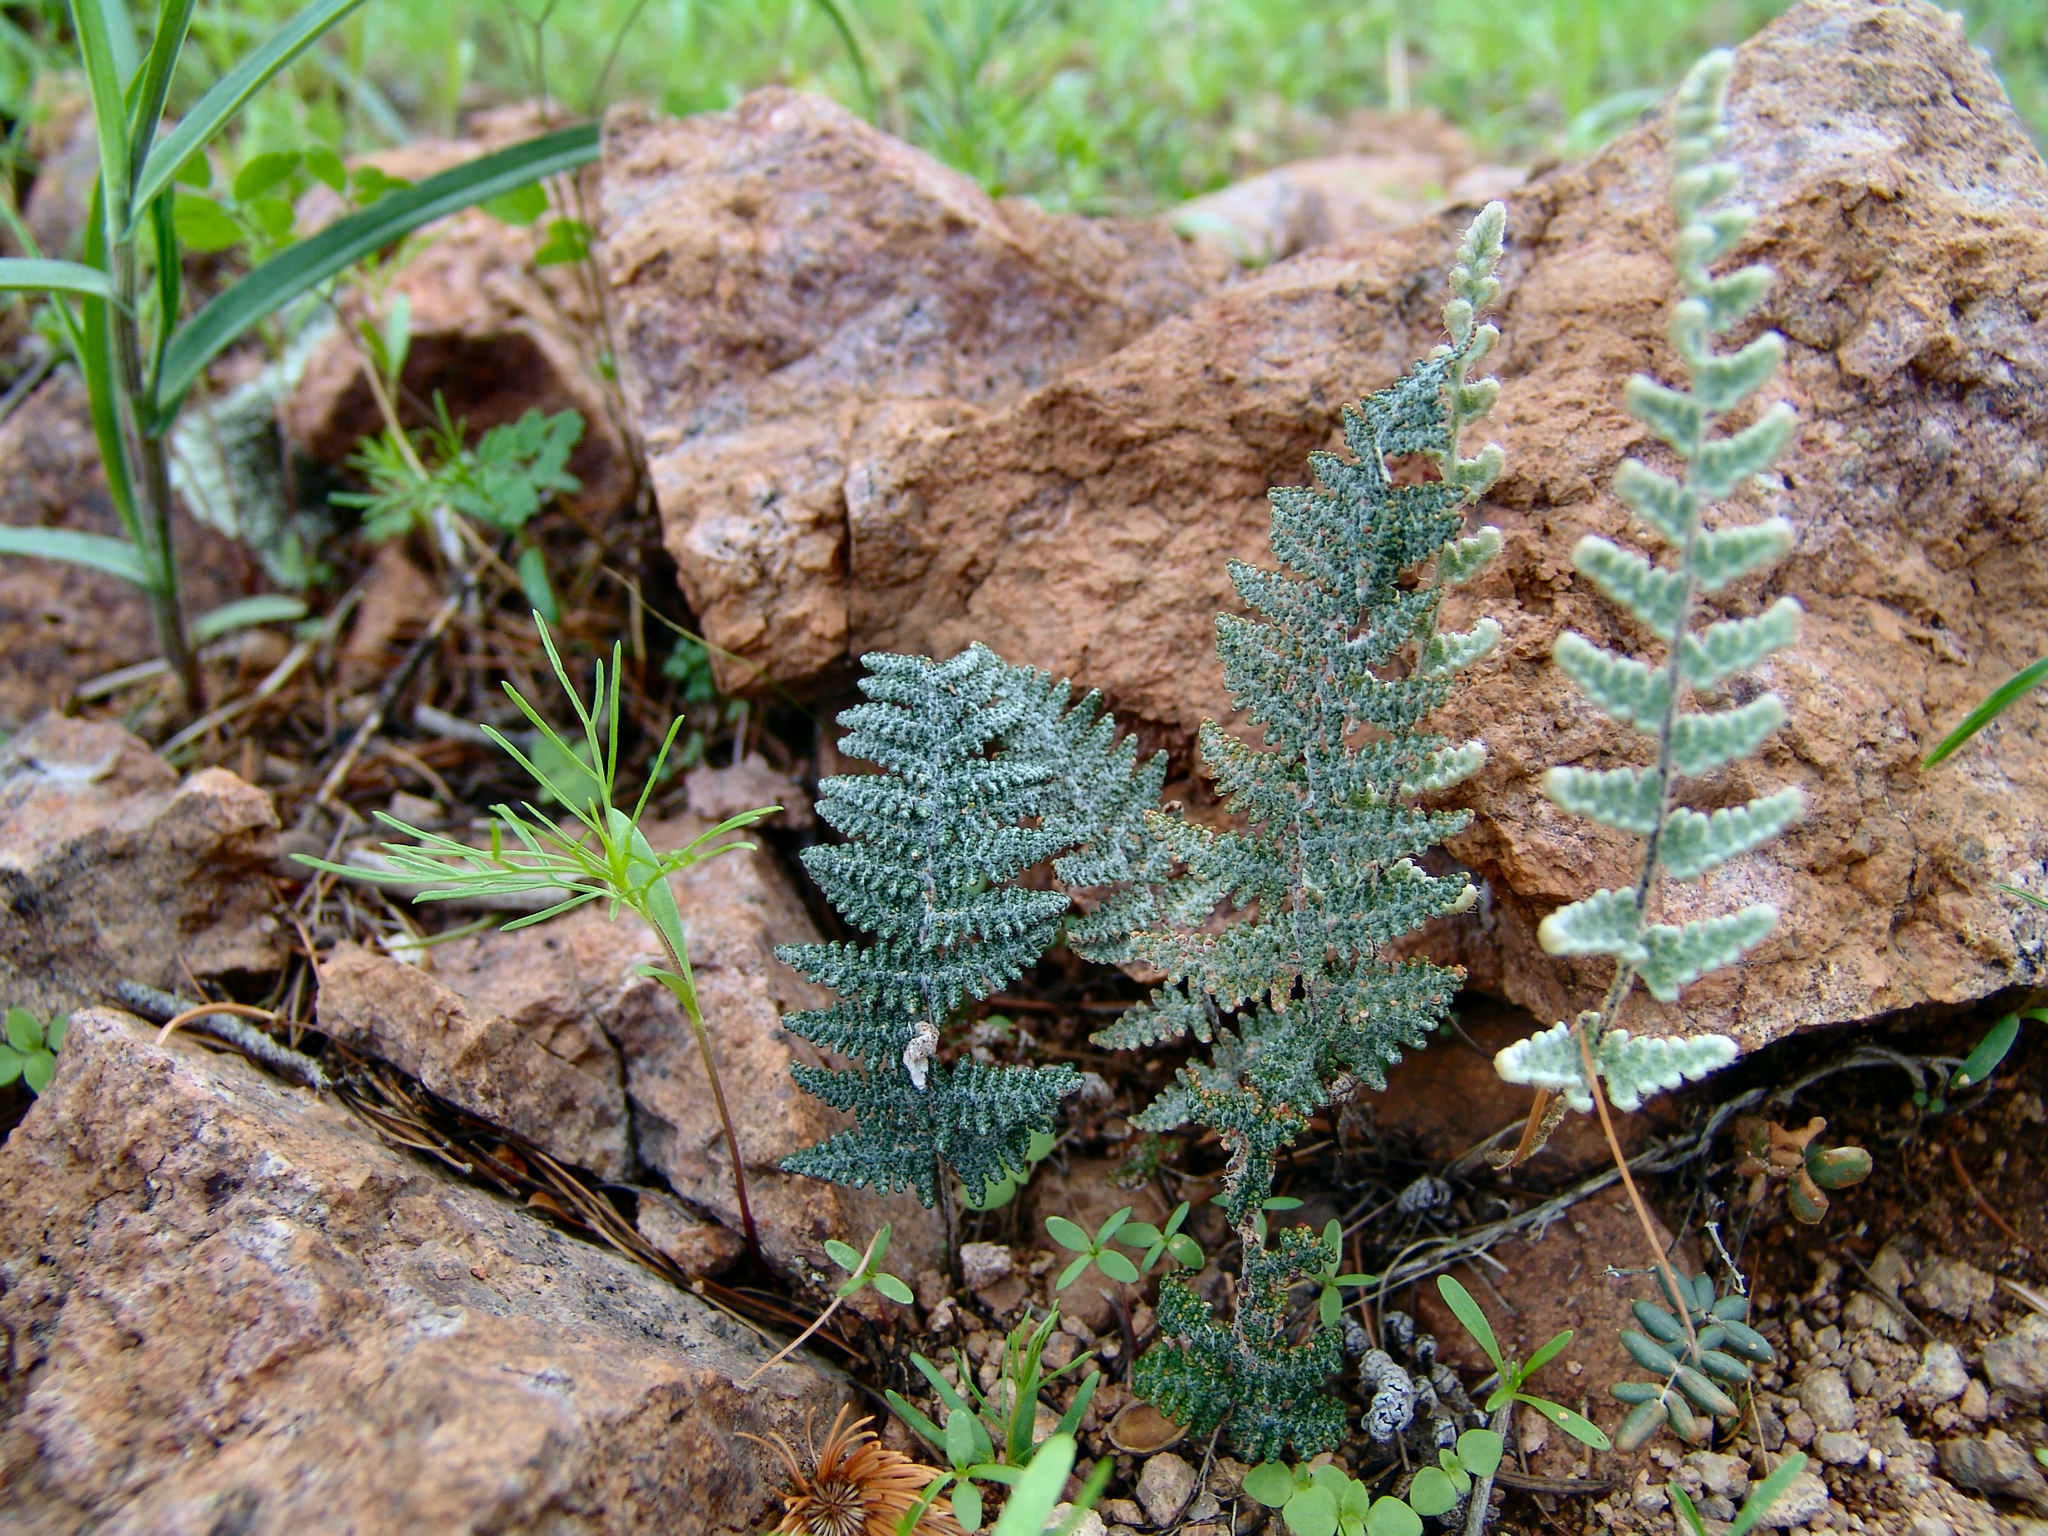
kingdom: Plantae
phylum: Tracheophyta
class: Polypodiopsida
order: Polypodiales
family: Pteridaceae
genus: Myriopteris
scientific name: Myriopteris lindheimeri
